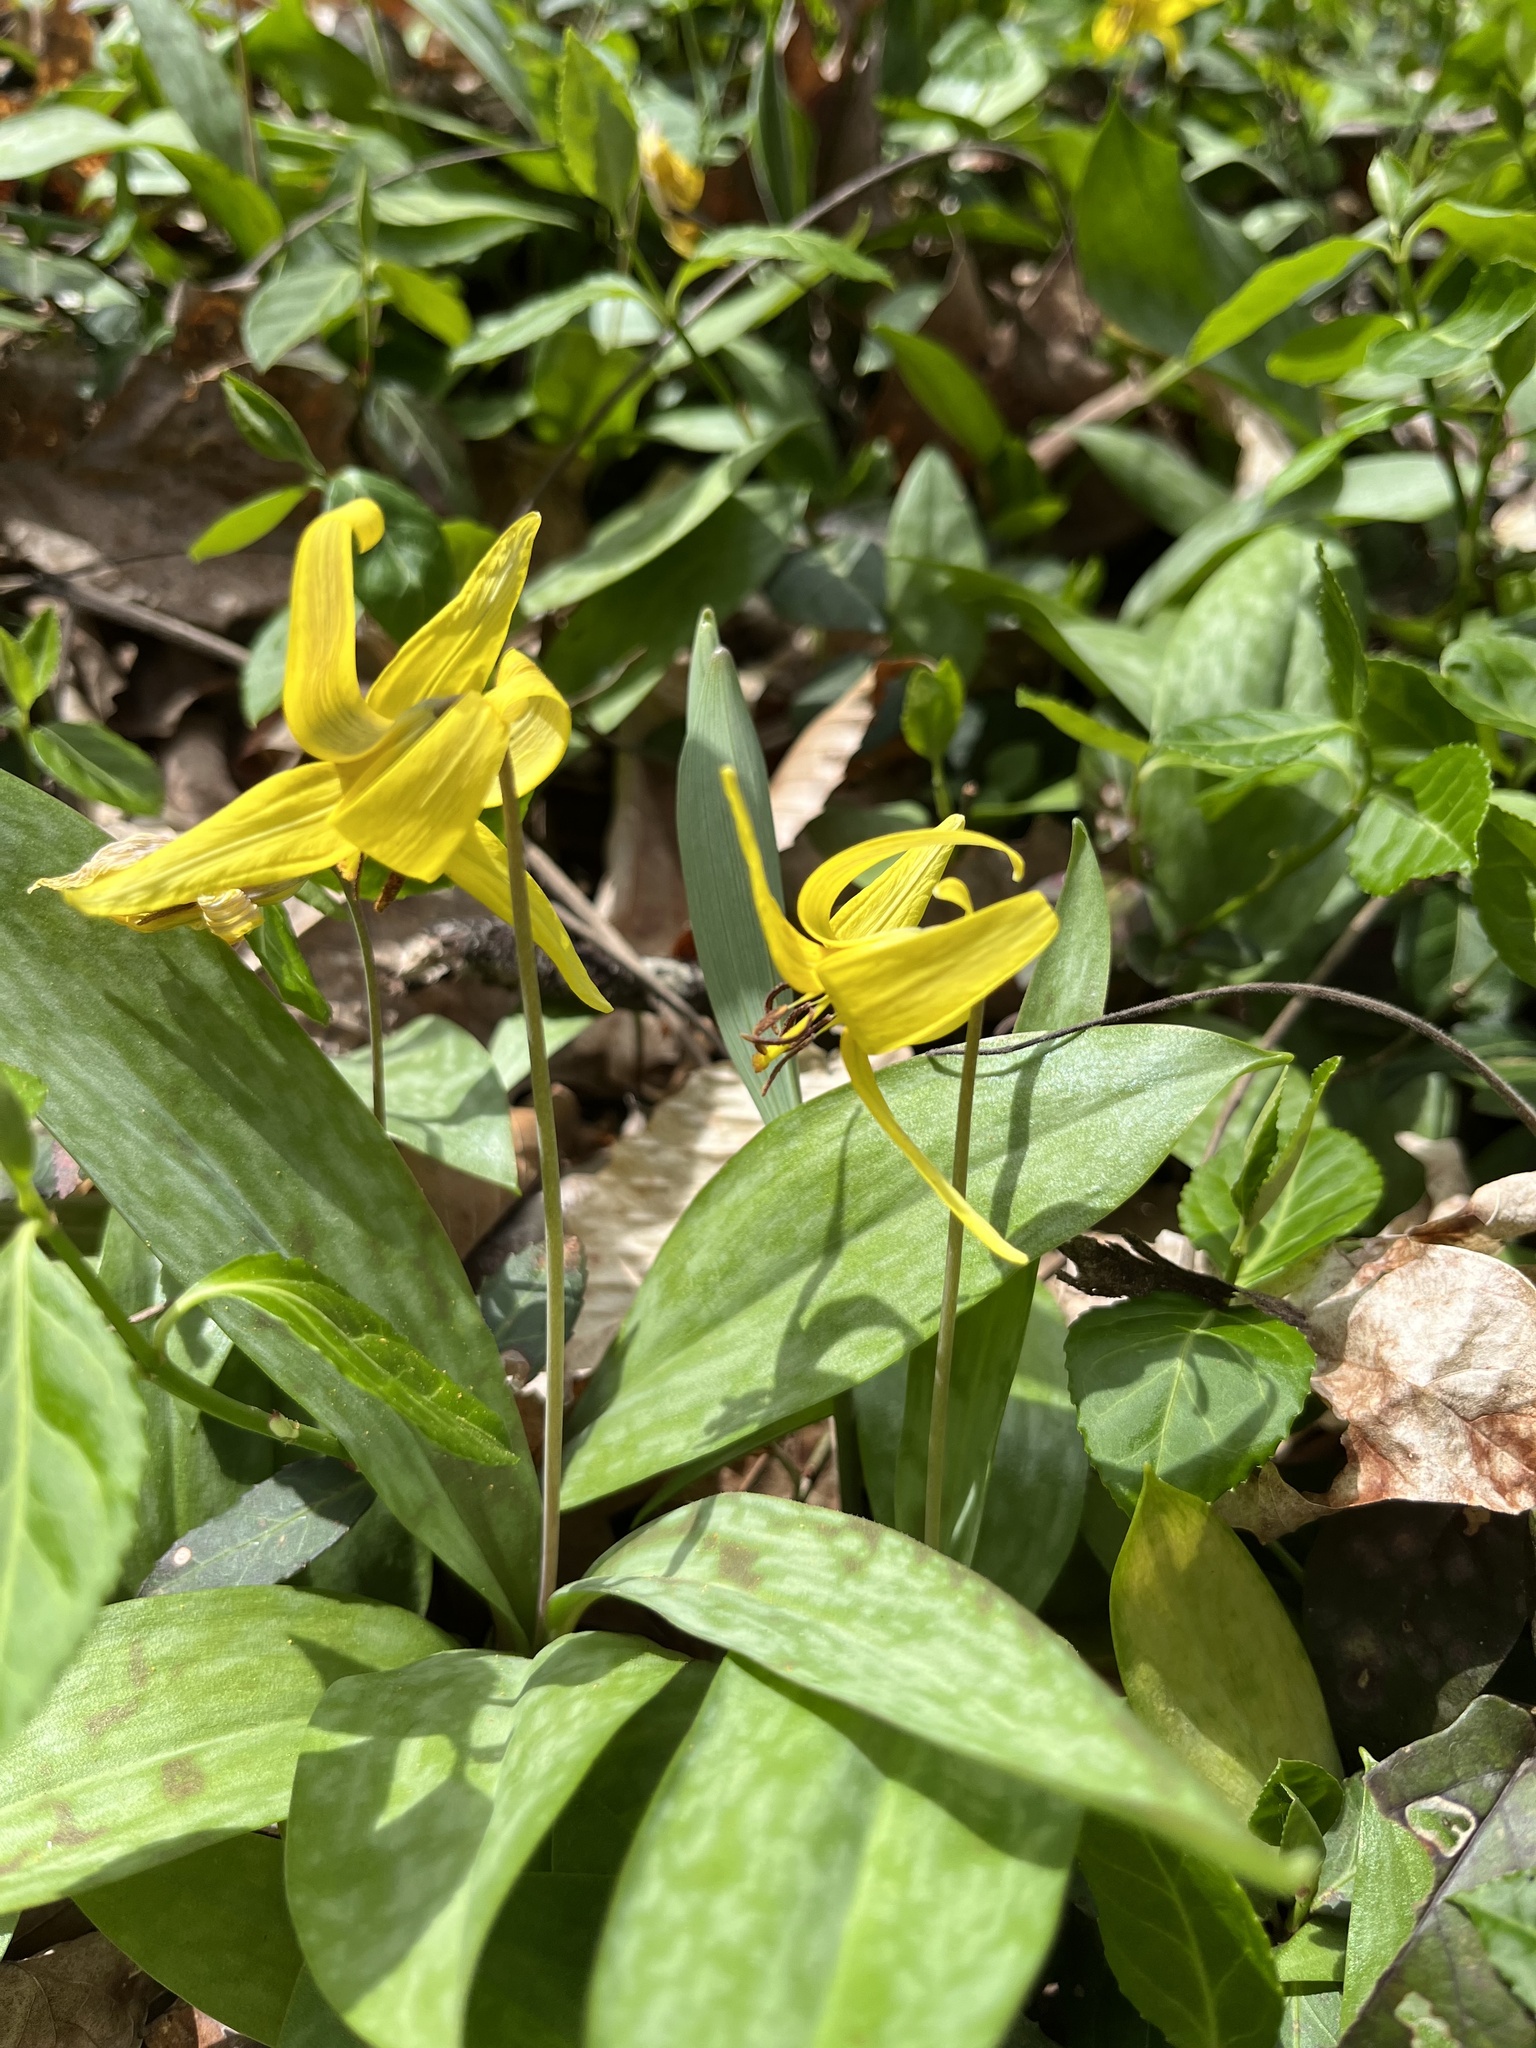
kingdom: Animalia
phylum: Arthropoda
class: Insecta
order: Hymenoptera
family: Apidae
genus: Xylocopa
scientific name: Xylocopa virginica
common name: Carpenter bee
